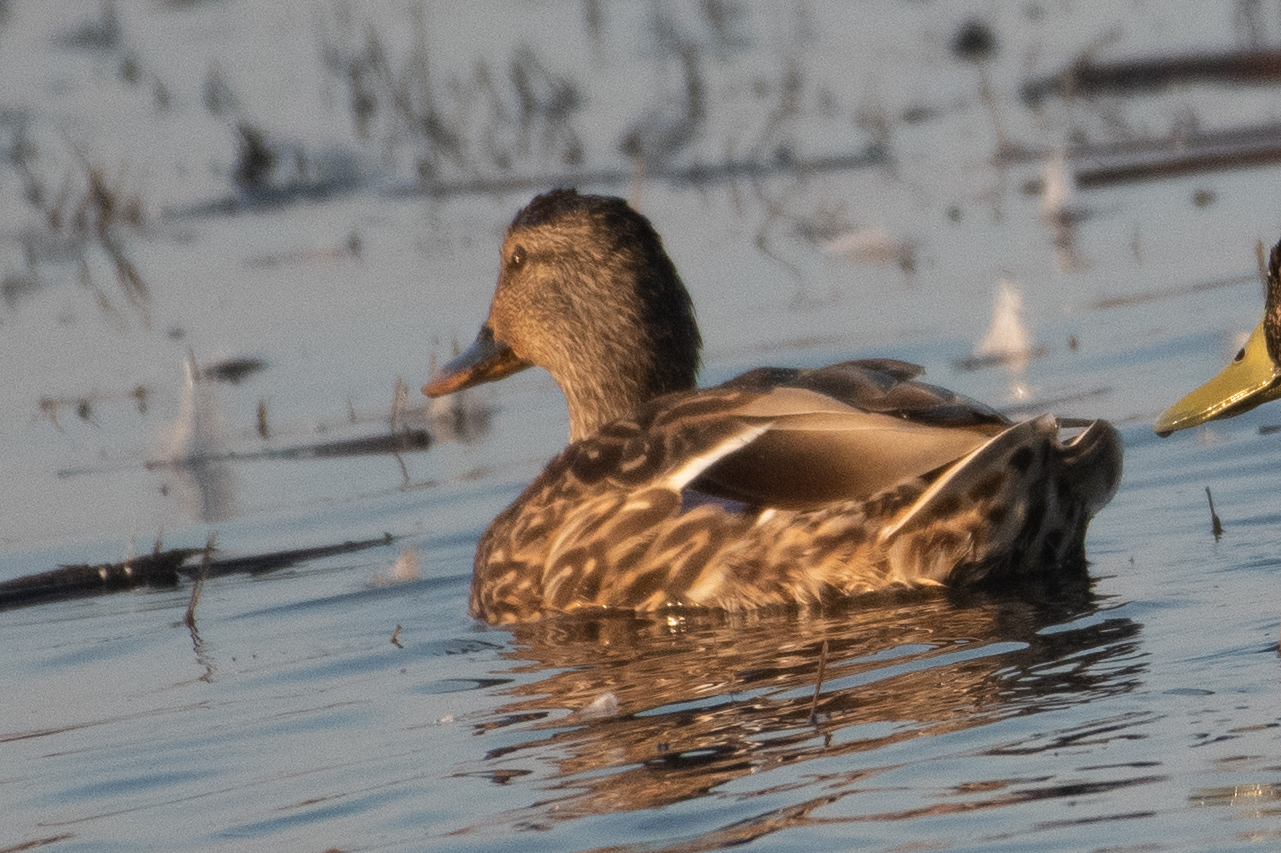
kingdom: Animalia
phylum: Chordata
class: Aves
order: Anseriformes
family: Anatidae
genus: Anas
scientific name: Anas platyrhynchos
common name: Mallard
